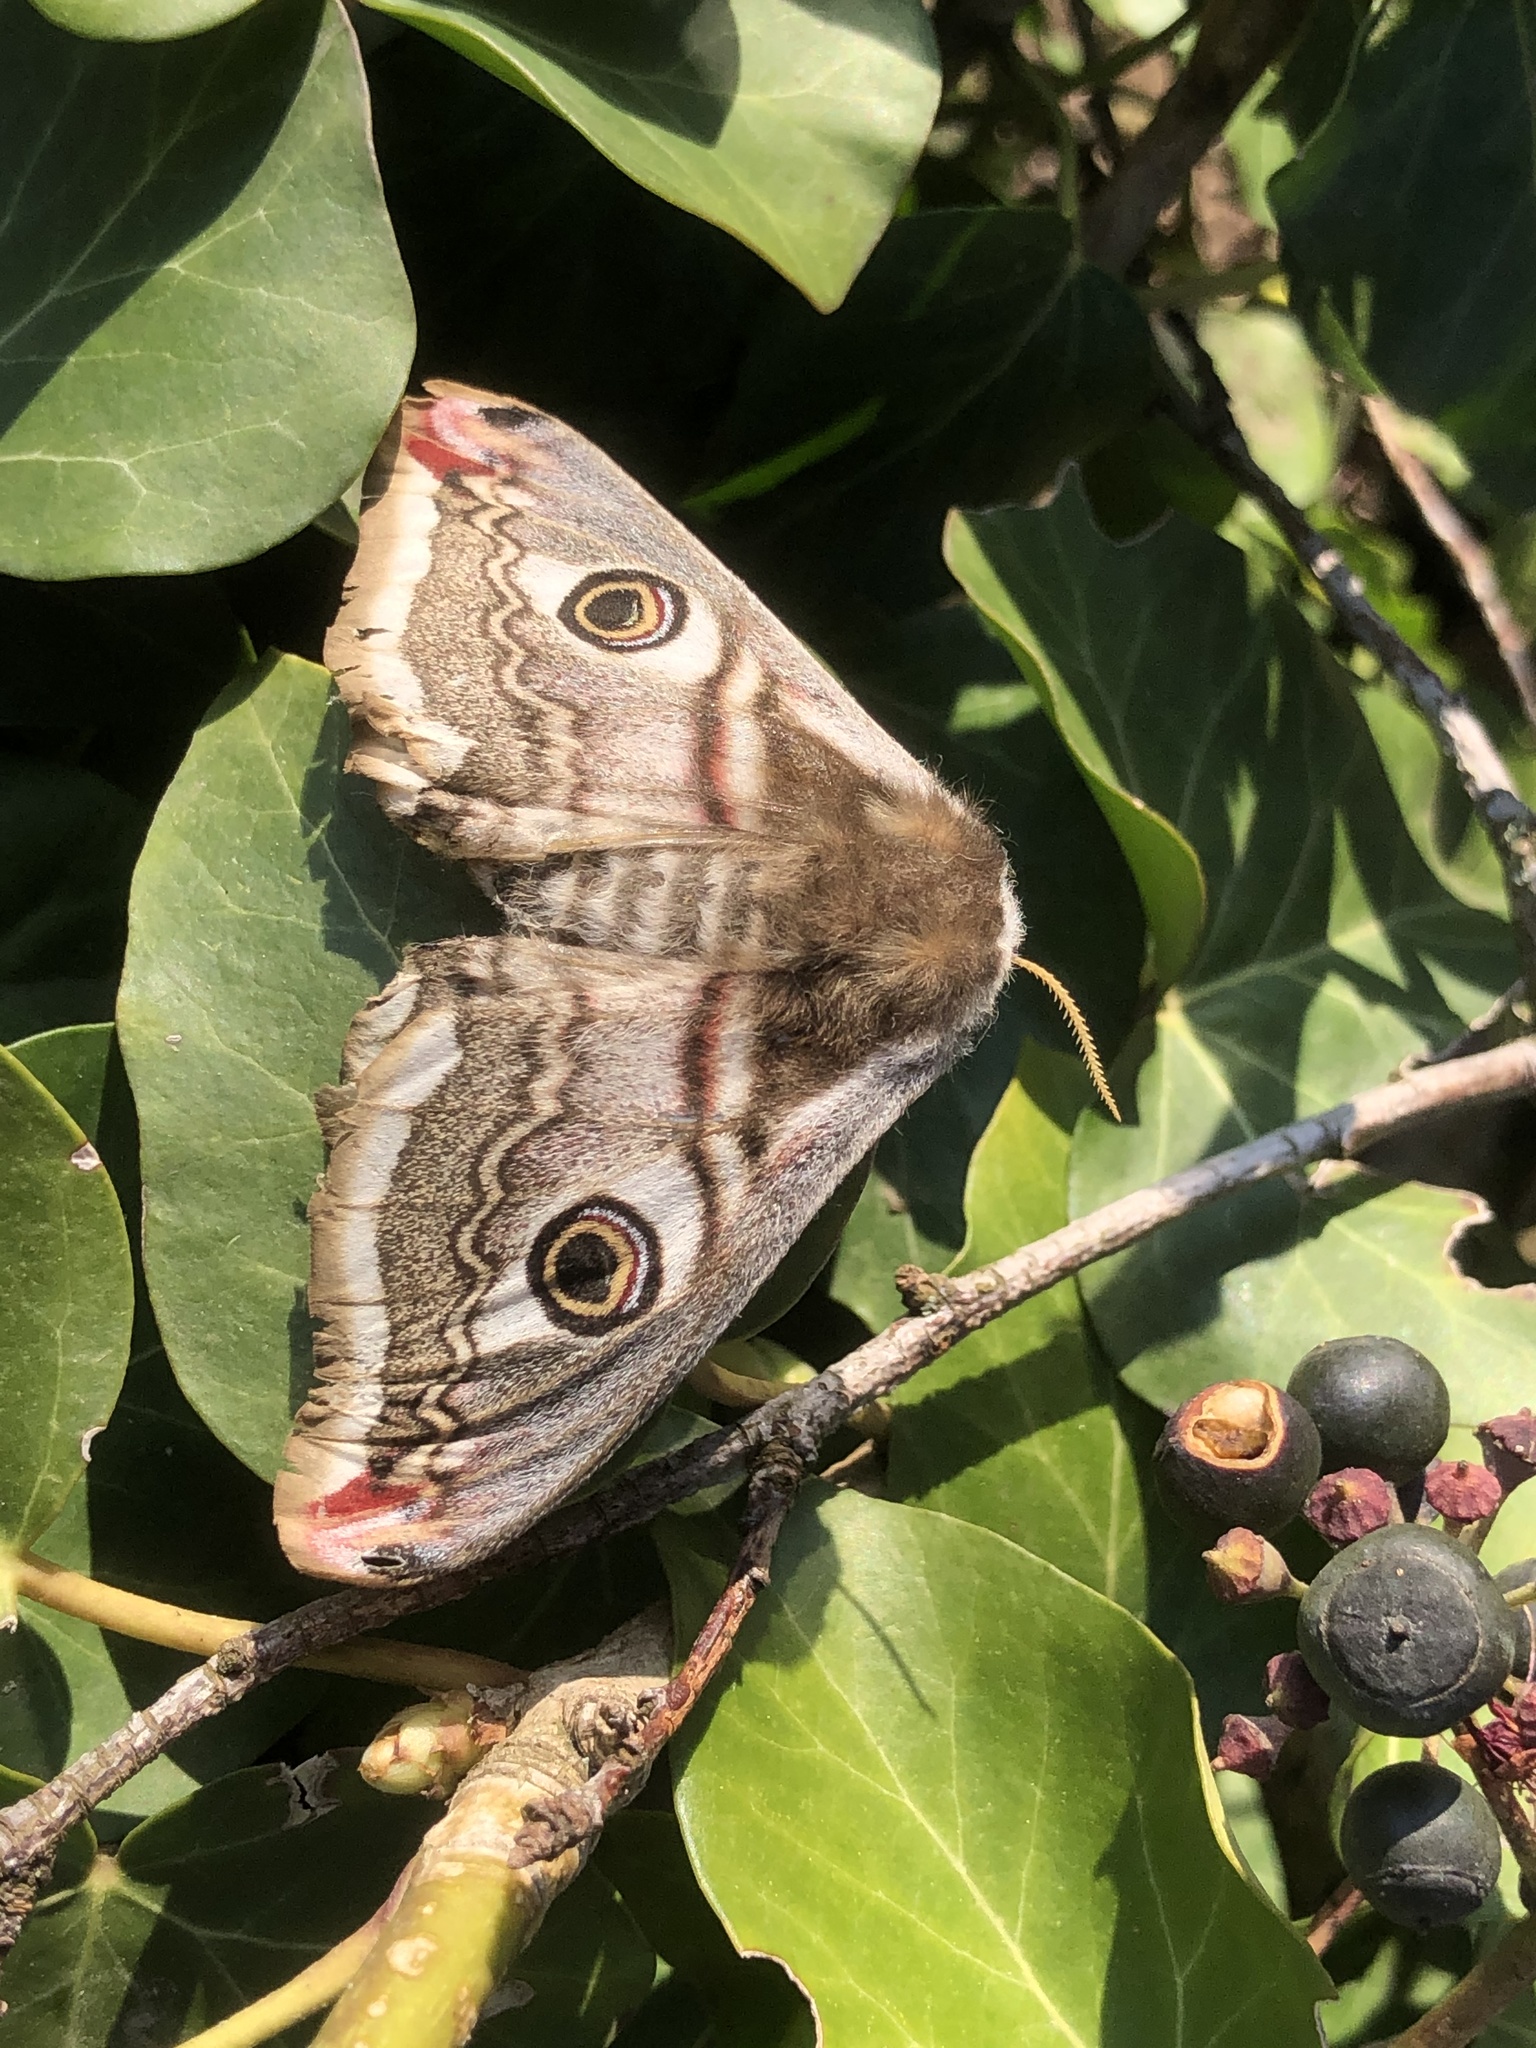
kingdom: Animalia
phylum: Arthropoda
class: Insecta
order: Lepidoptera
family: Saturniidae
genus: Saturnia
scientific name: Saturnia pavonia
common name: Emperor moth
